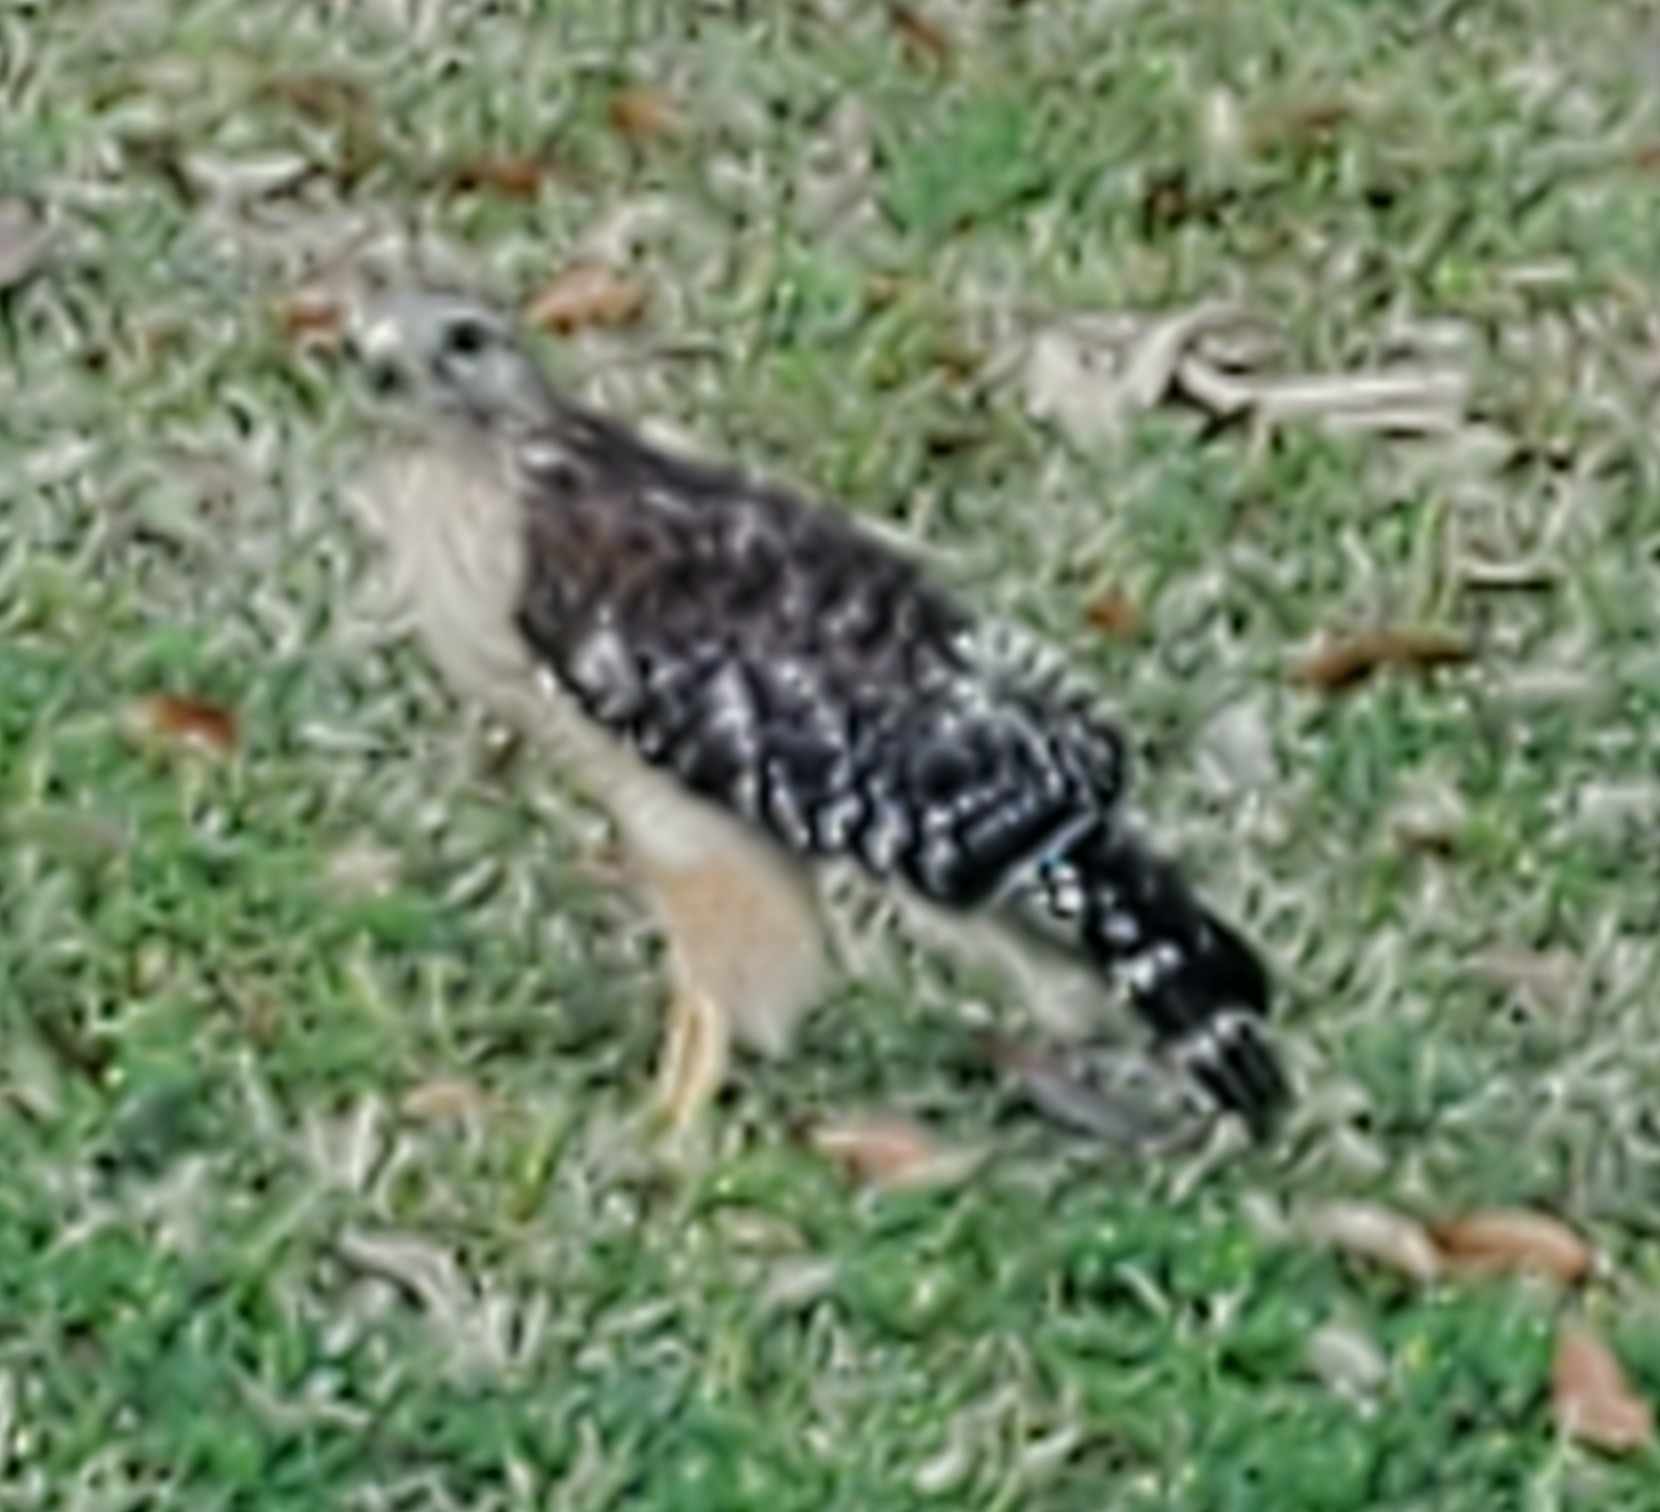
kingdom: Animalia
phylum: Chordata
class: Aves
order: Accipitriformes
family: Accipitridae
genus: Buteo
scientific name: Buteo lineatus
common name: Red-shouldered hawk
